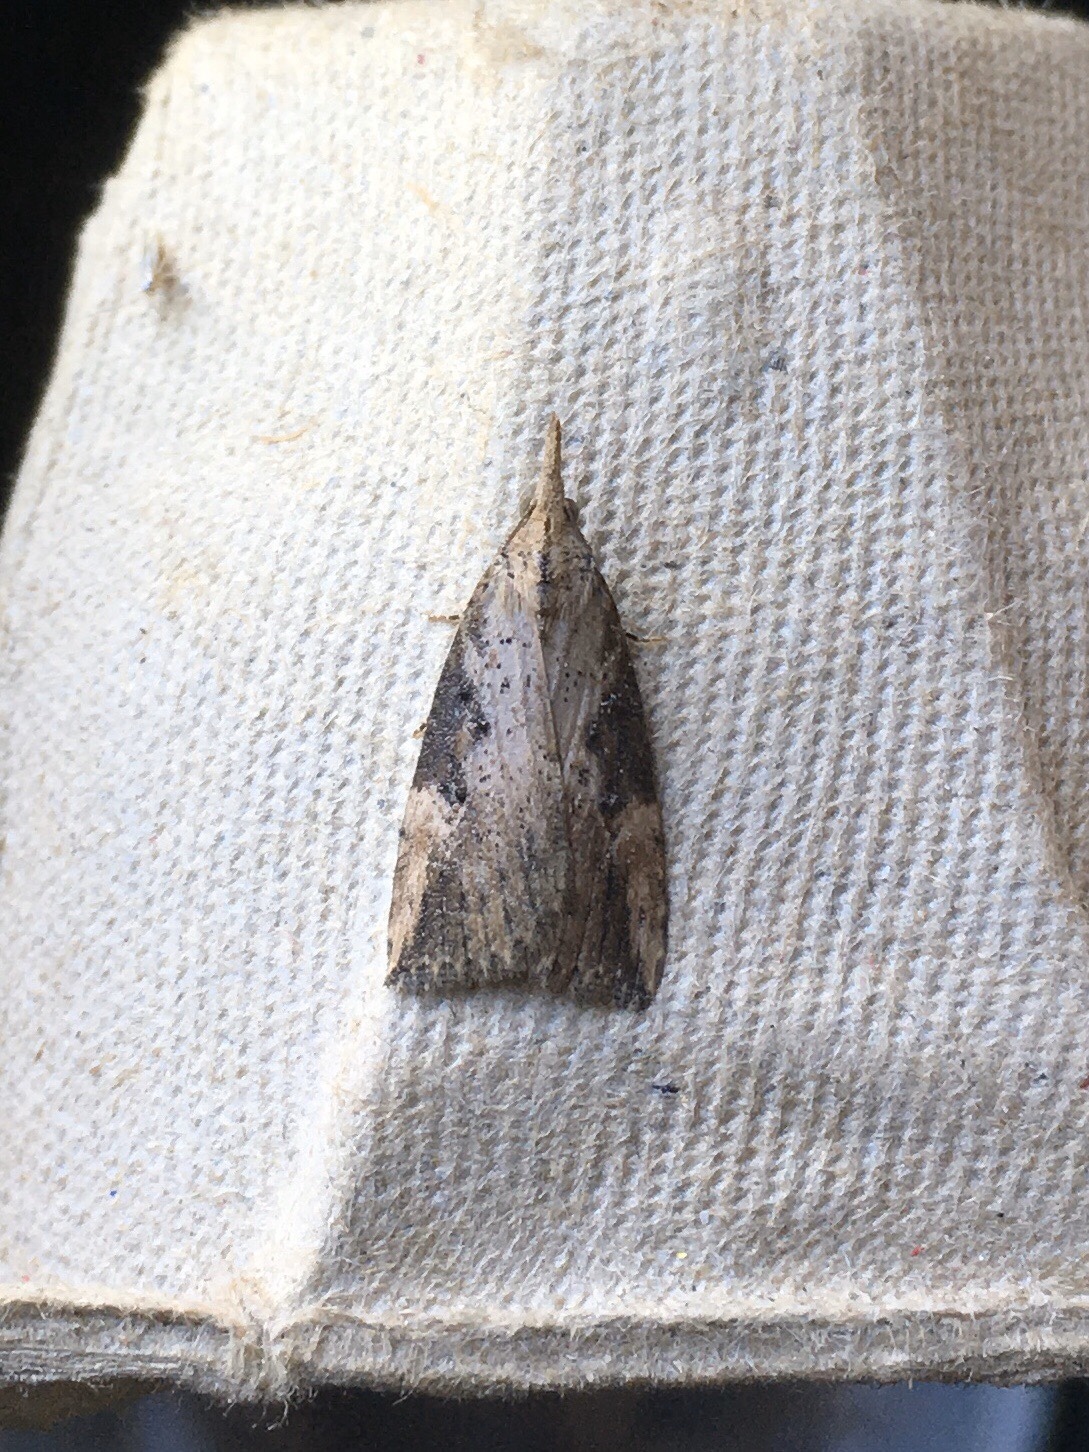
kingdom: Animalia
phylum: Arthropoda
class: Insecta
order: Lepidoptera
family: Erebidae
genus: Hypena
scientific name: Hypena humuli
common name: Hop vine snout
